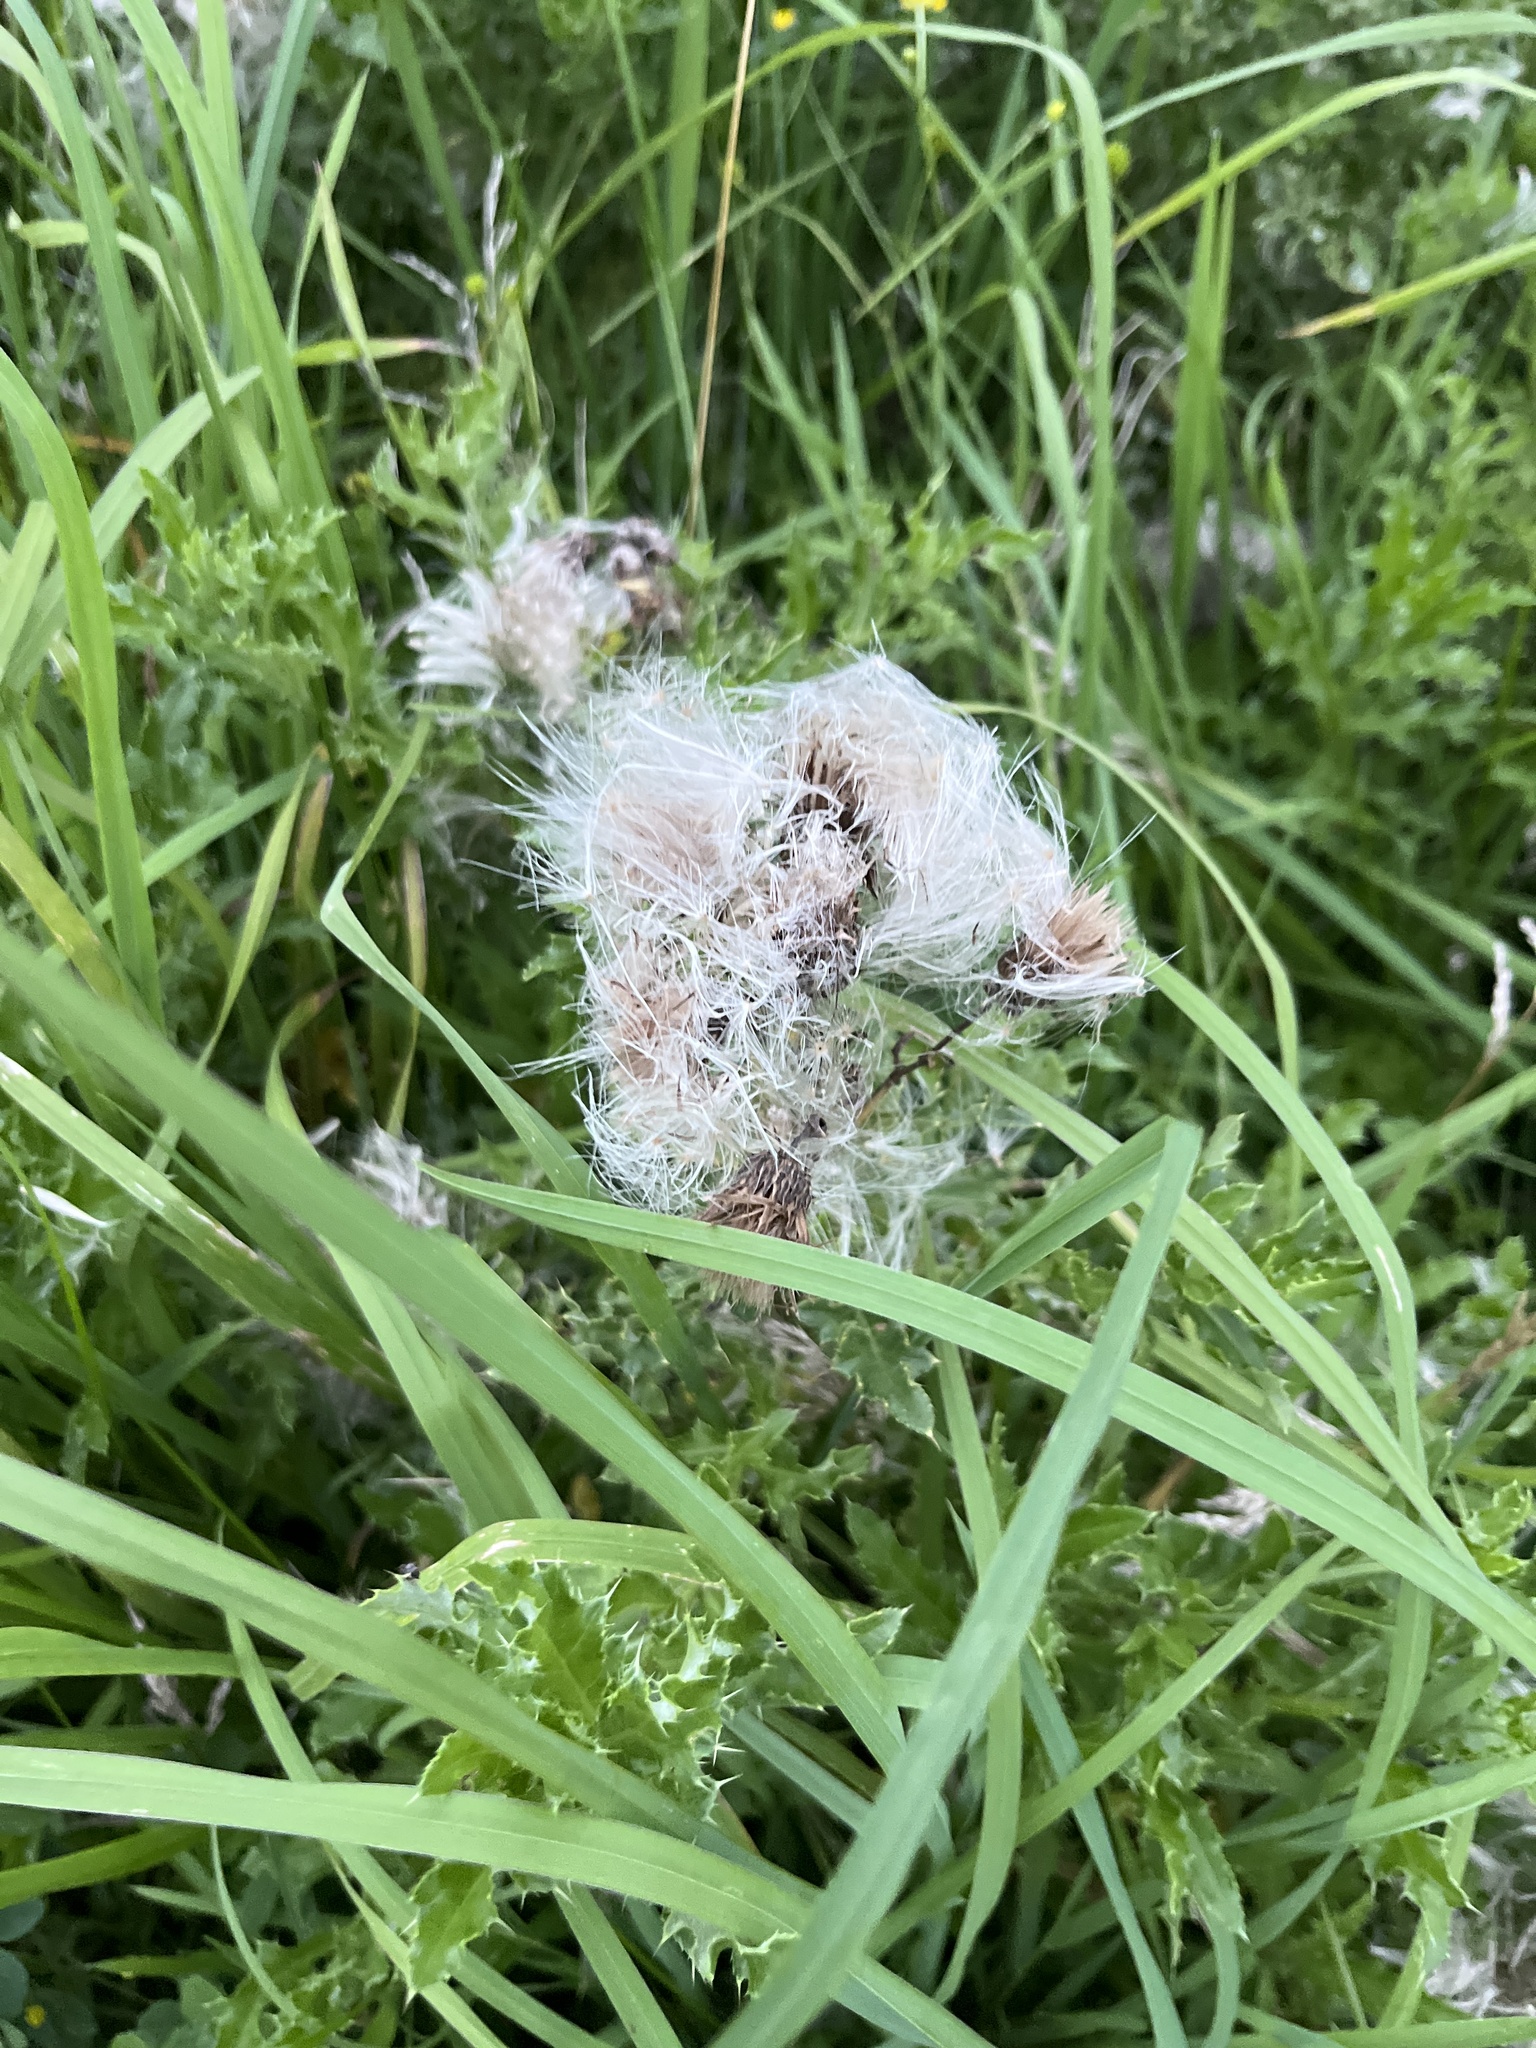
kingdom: Plantae
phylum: Tracheophyta
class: Magnoliopsida
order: Asterales
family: Asteraceae
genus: Cirsium
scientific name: Cirsium arvense
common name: Creeping thistle
